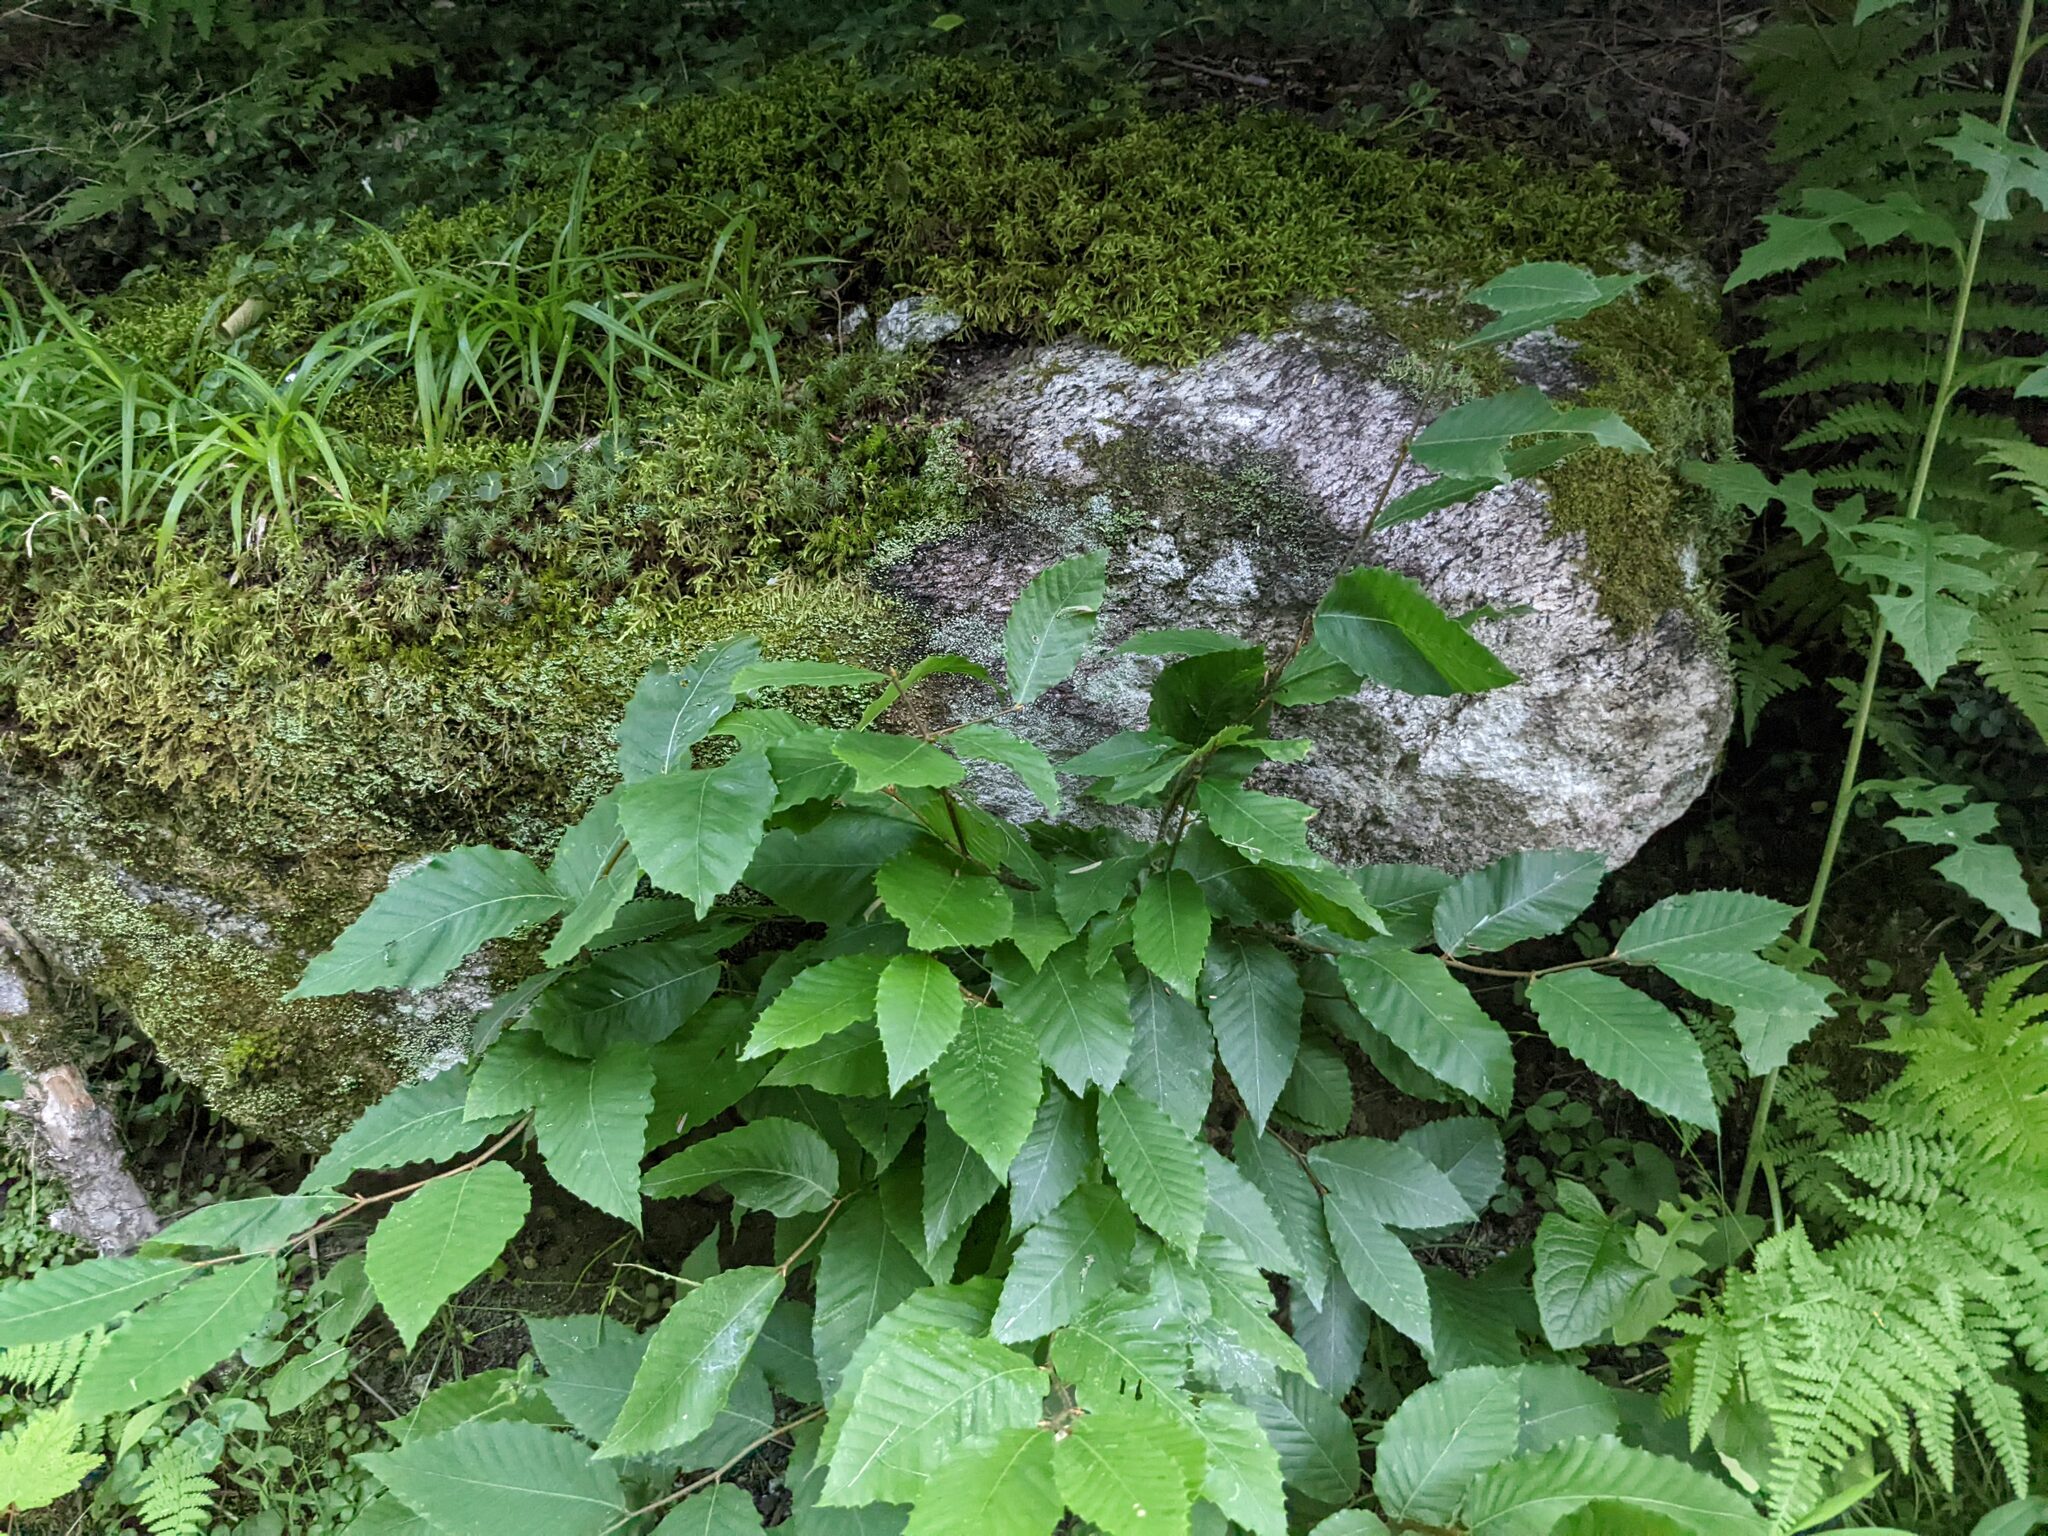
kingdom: Plantae
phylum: Tracheophyta
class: Magnoliopsida
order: Fagales
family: Fagaceae
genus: Fagus
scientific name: Fagus grandifolia
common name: American beech
